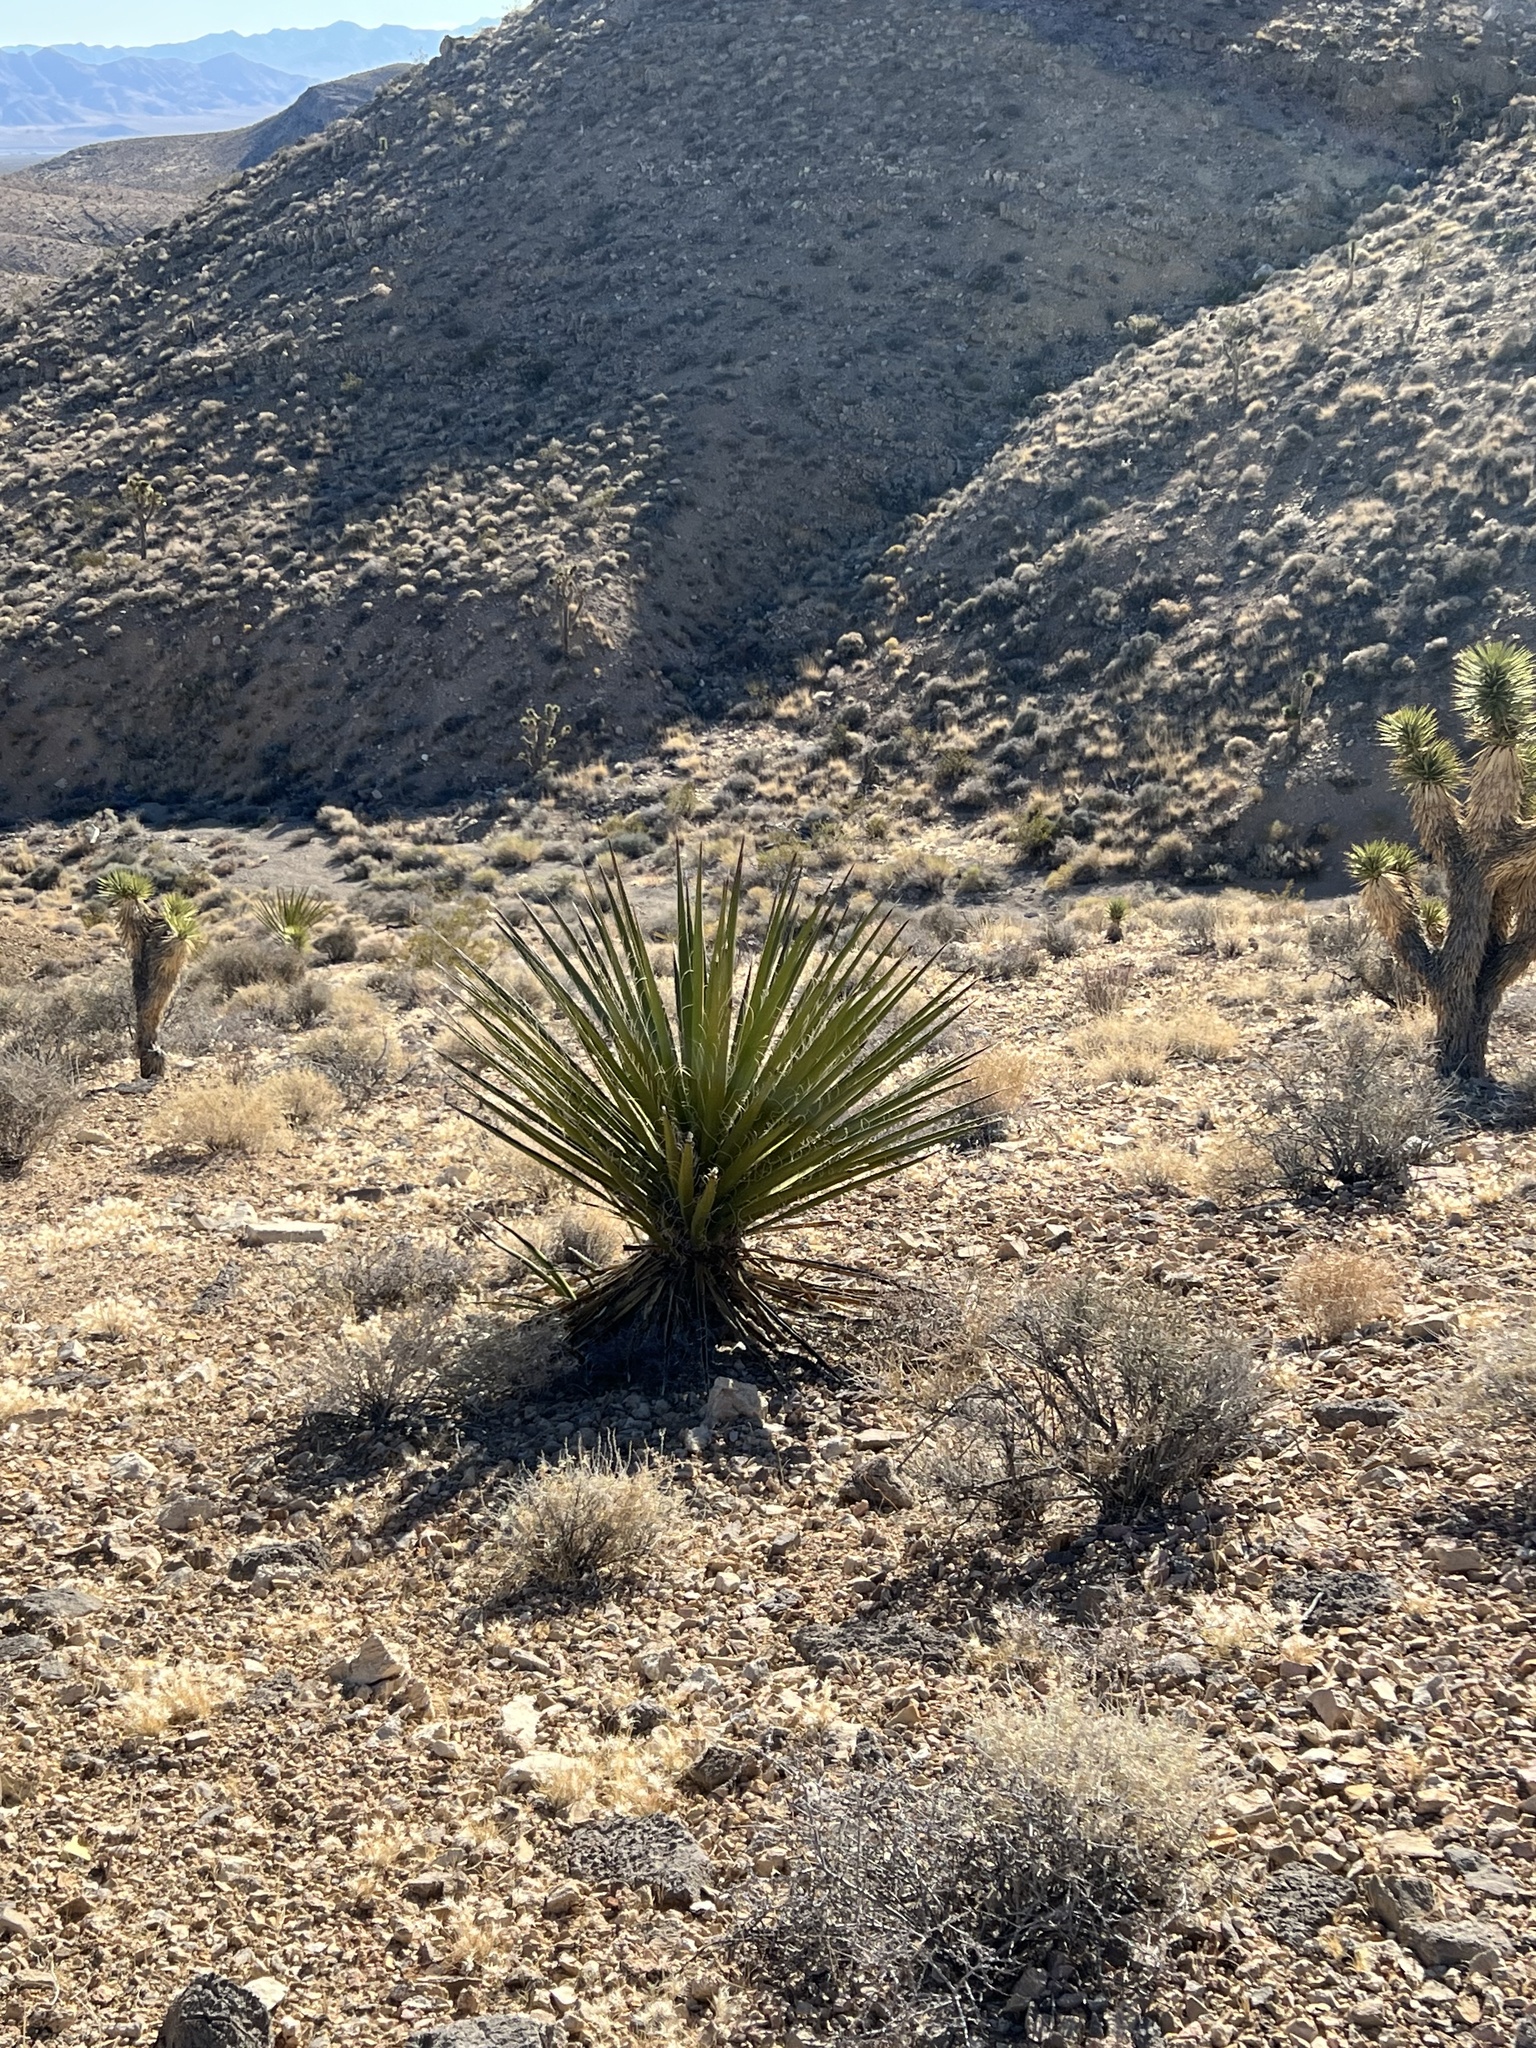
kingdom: Plantae
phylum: Tracheophyta
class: Liliopsida
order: Asparagales
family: Asparagaceae
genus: Yucca
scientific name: Yucca schidigera
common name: Mojave yucca
